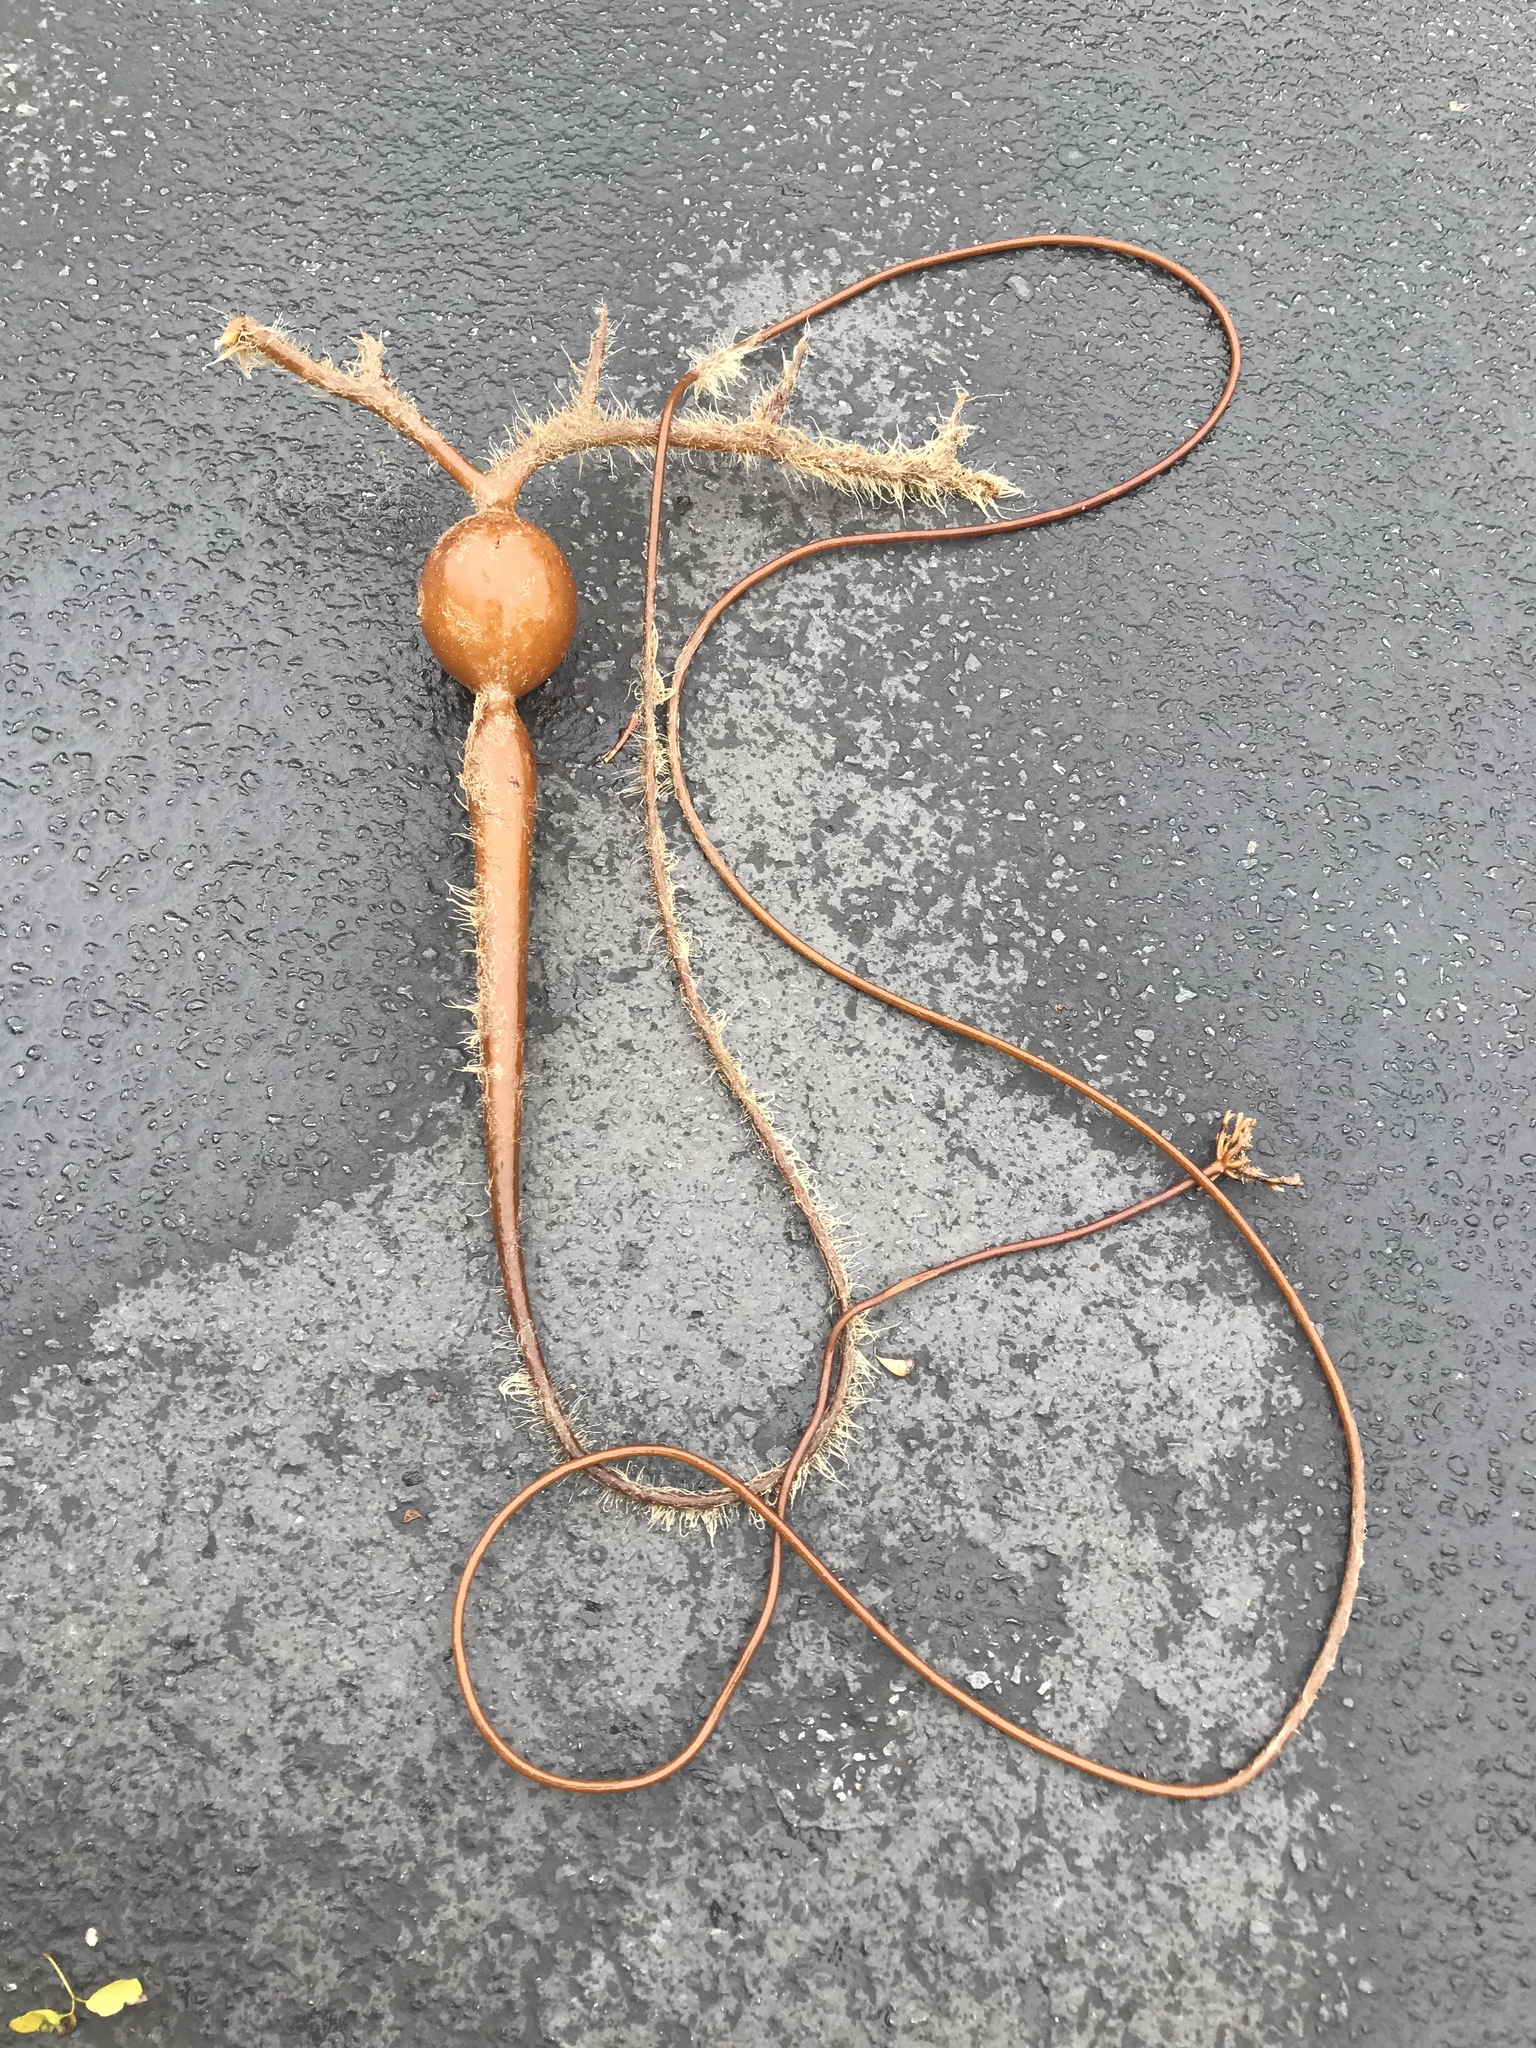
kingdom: Chromista
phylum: Ochrophyta
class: Phaeophyceae
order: Laminariales
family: Laminariaceae
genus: Pelagophycus
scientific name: Pelagophycus porra
